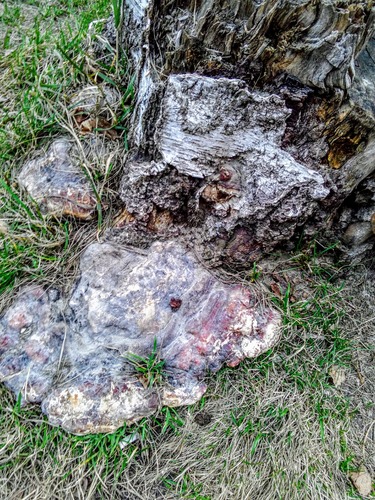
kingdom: Fungi
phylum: Basidiomycota
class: Agaricomycetes
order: Polyporales
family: Fomitopsidaceae
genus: Fomitopsis
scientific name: Fomitopsis pinicola
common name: Red-belted bracket
